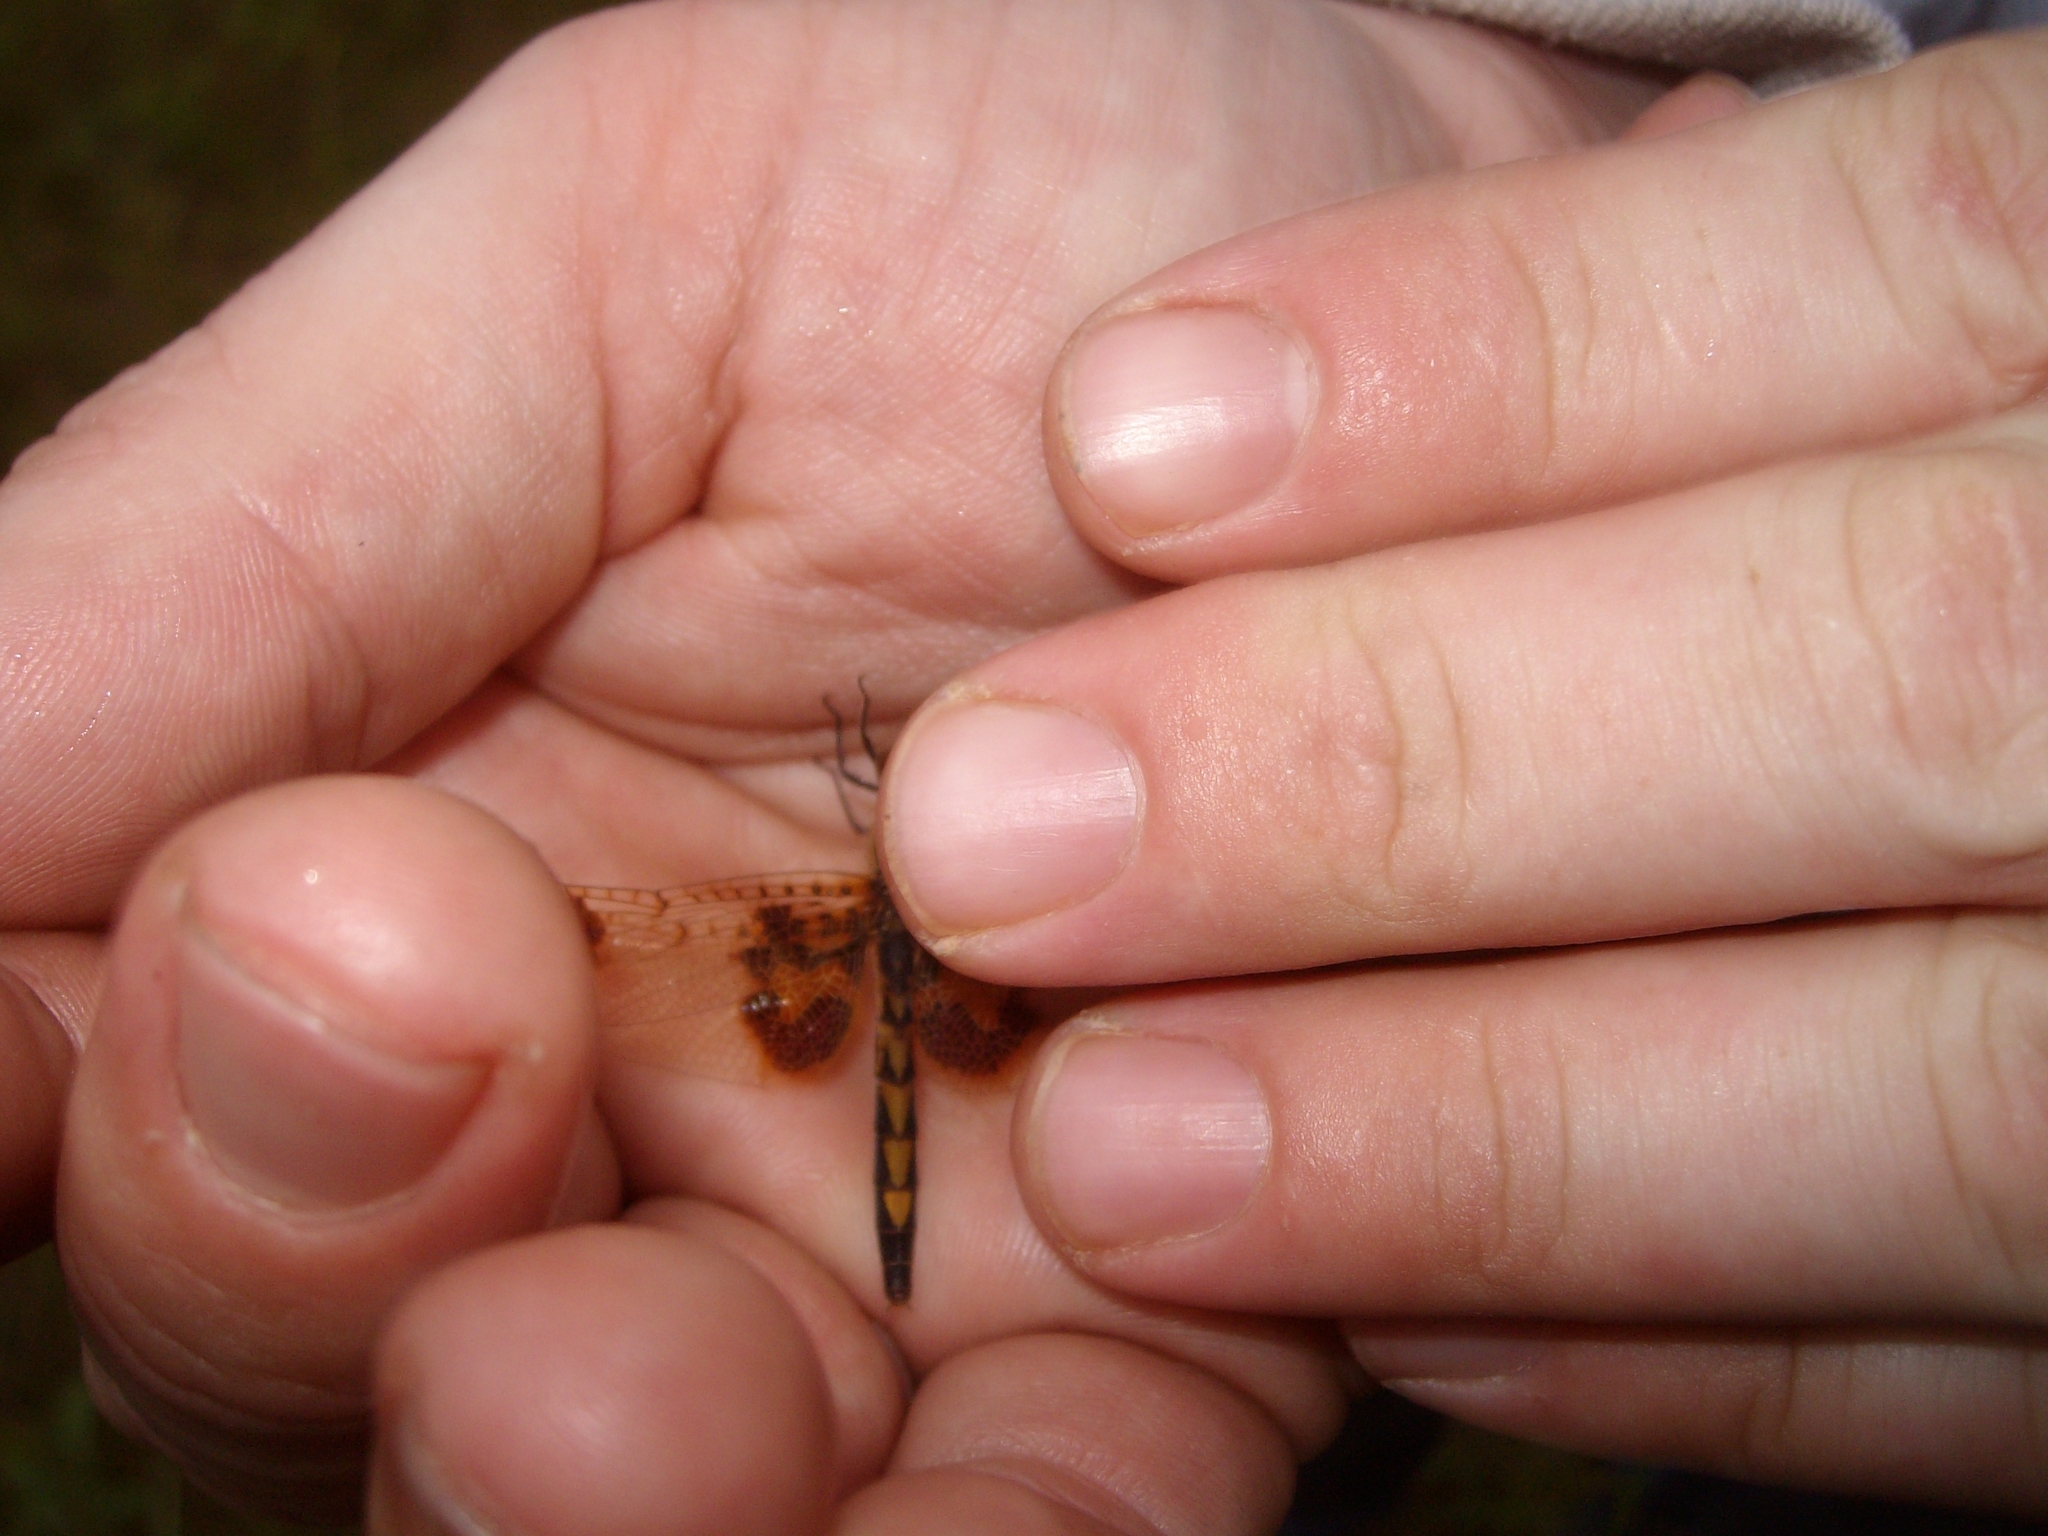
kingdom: Animalia
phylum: Arthropoda
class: Insecta
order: Odonata
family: Libellulidae
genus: Celithemis
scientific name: Celithemis elisa
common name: Calico pennant
